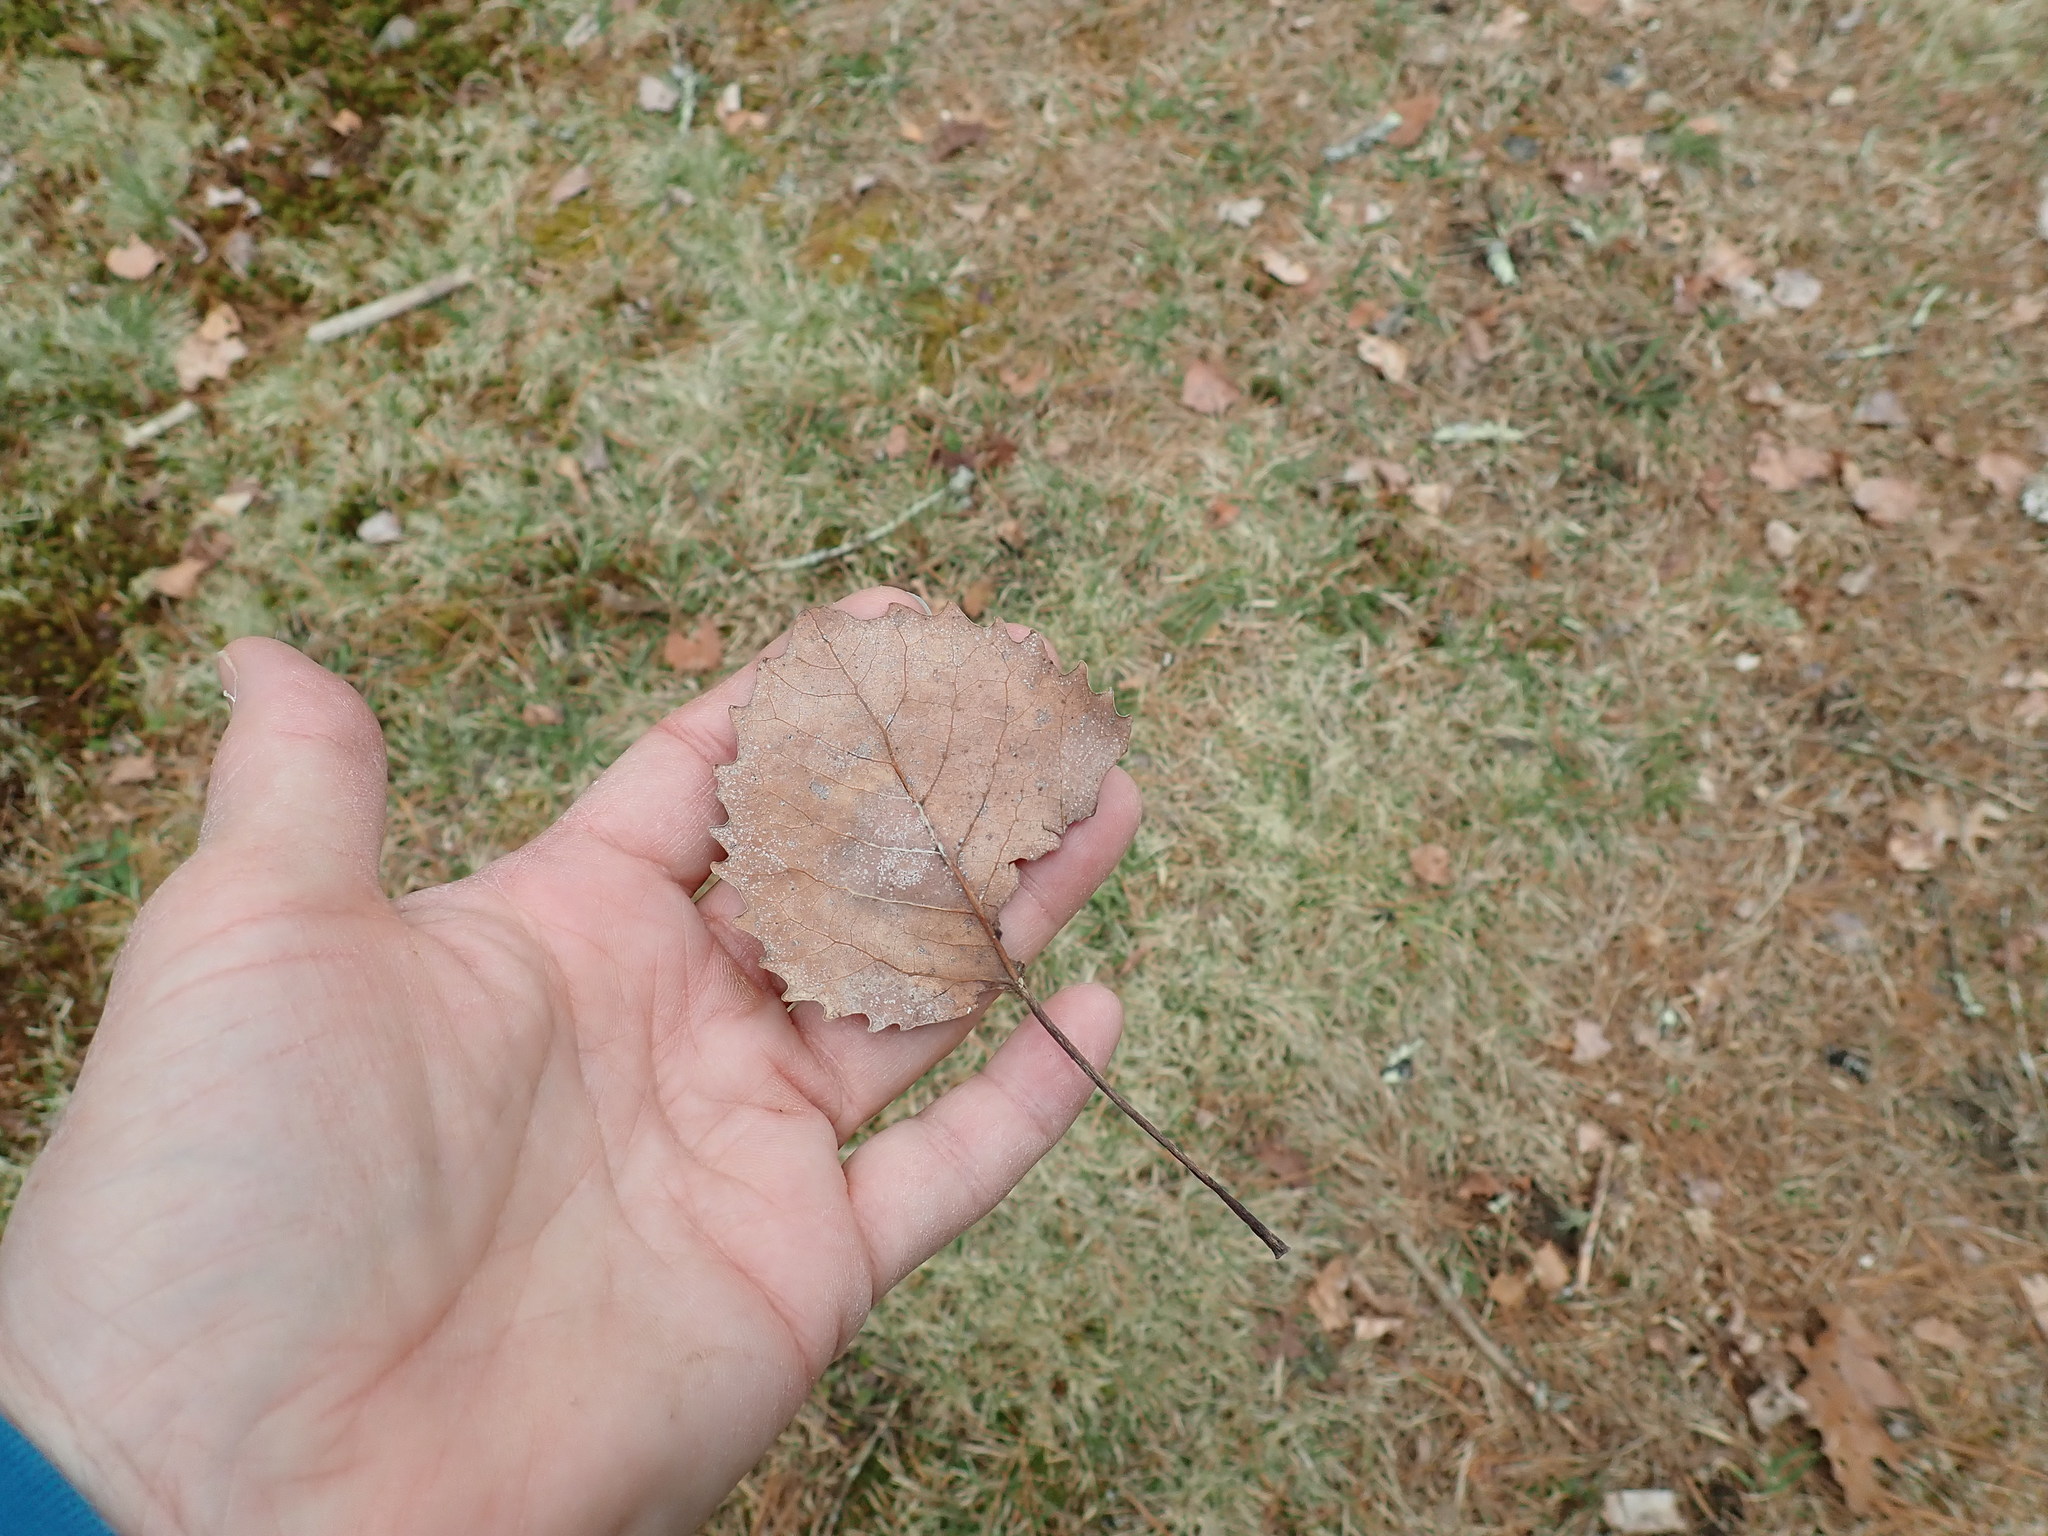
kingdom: Plantae
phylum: Tracheophyta
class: Magnoliopsida
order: Malpighiales
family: Salicaceae
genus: Populus
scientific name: Populus grandidentata
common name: Bigtooth aspen
